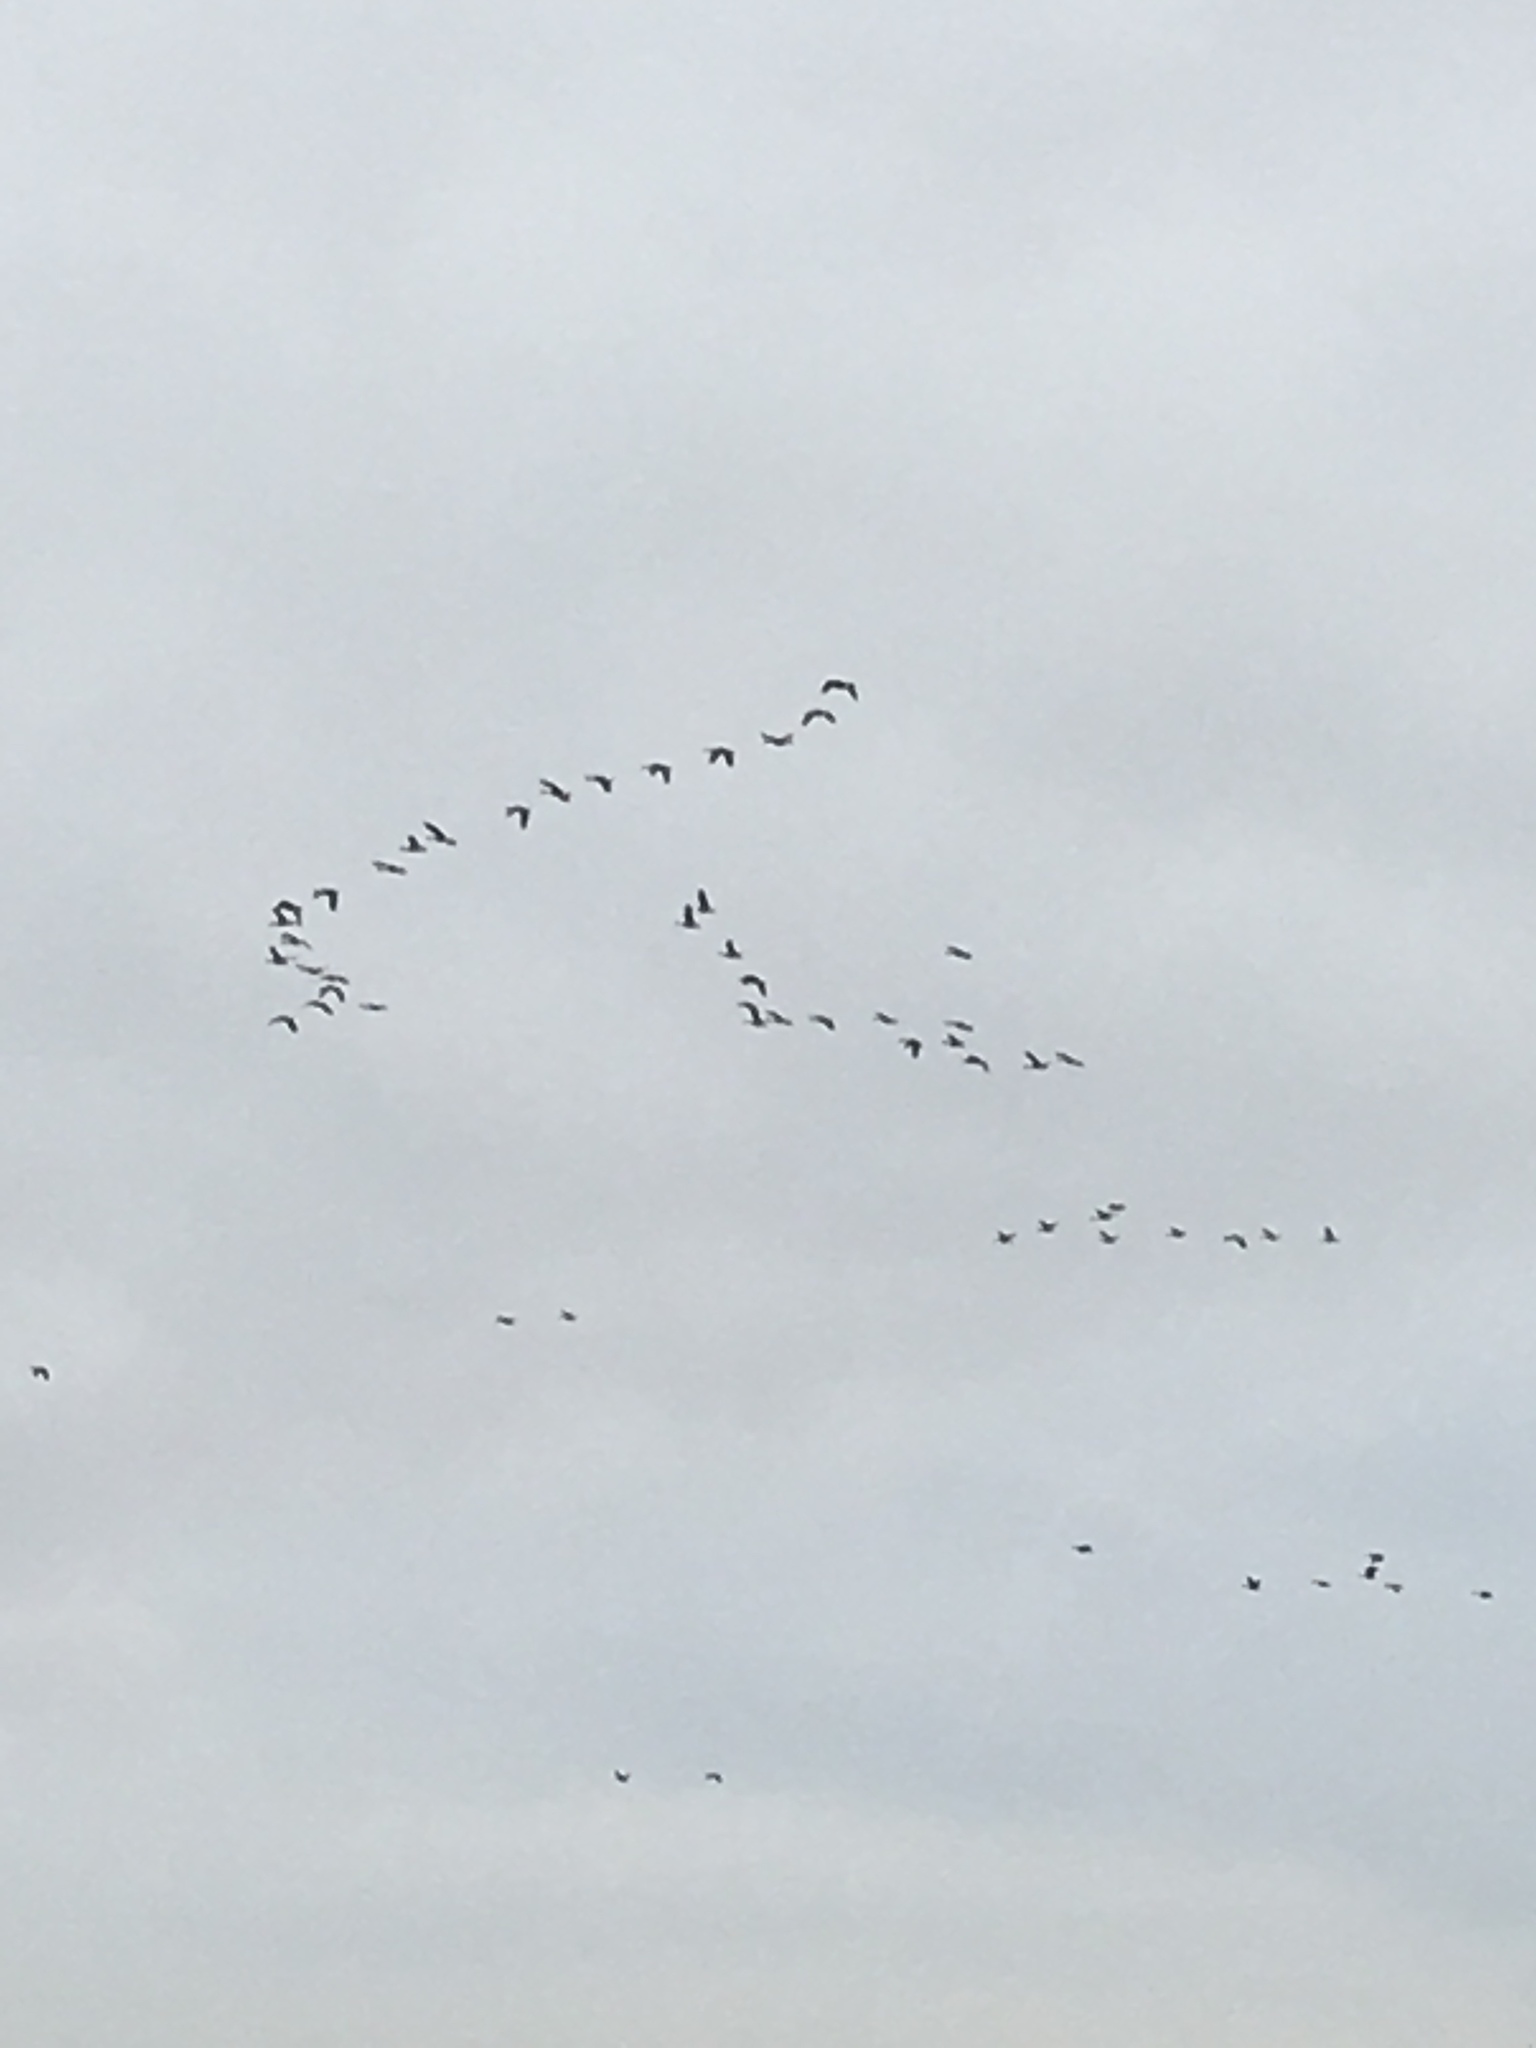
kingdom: Animalia
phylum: Chordata
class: Aves
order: Anseriformes
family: Anatidae
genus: Branta
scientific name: Branta canadensis
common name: Canada goose
